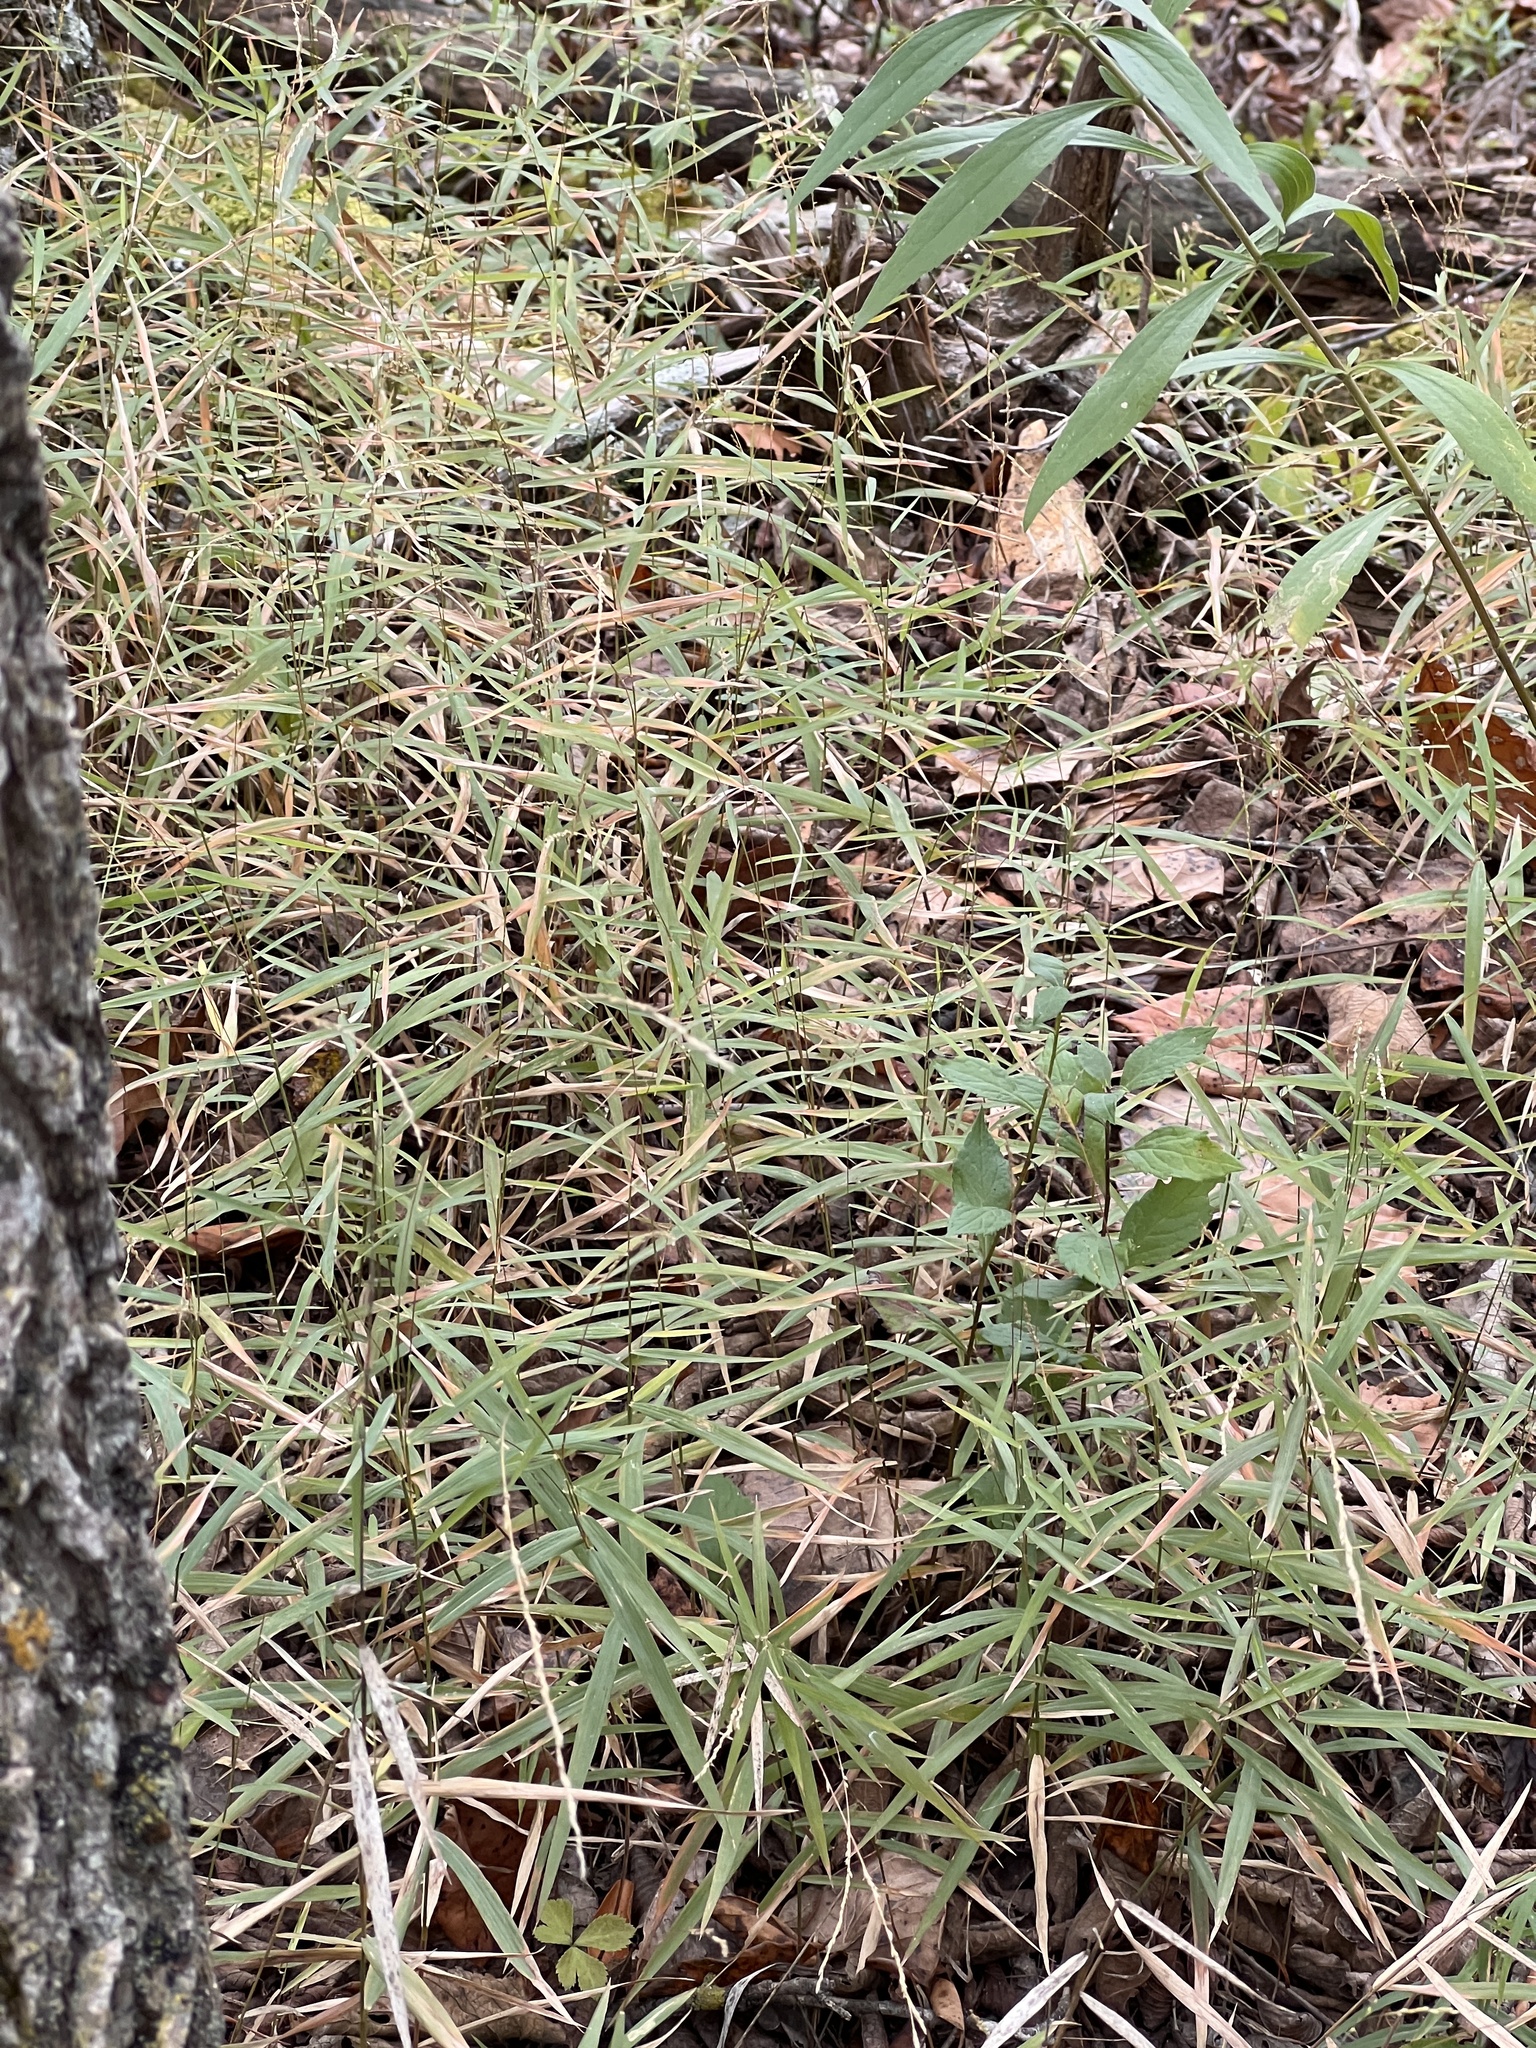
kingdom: Plantae
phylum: Tracheophyta
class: Liliopsida
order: Poales
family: Poaceae
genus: Muhlenbergia
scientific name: Muhlenbergia sobolifera
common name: Creeping muhly
